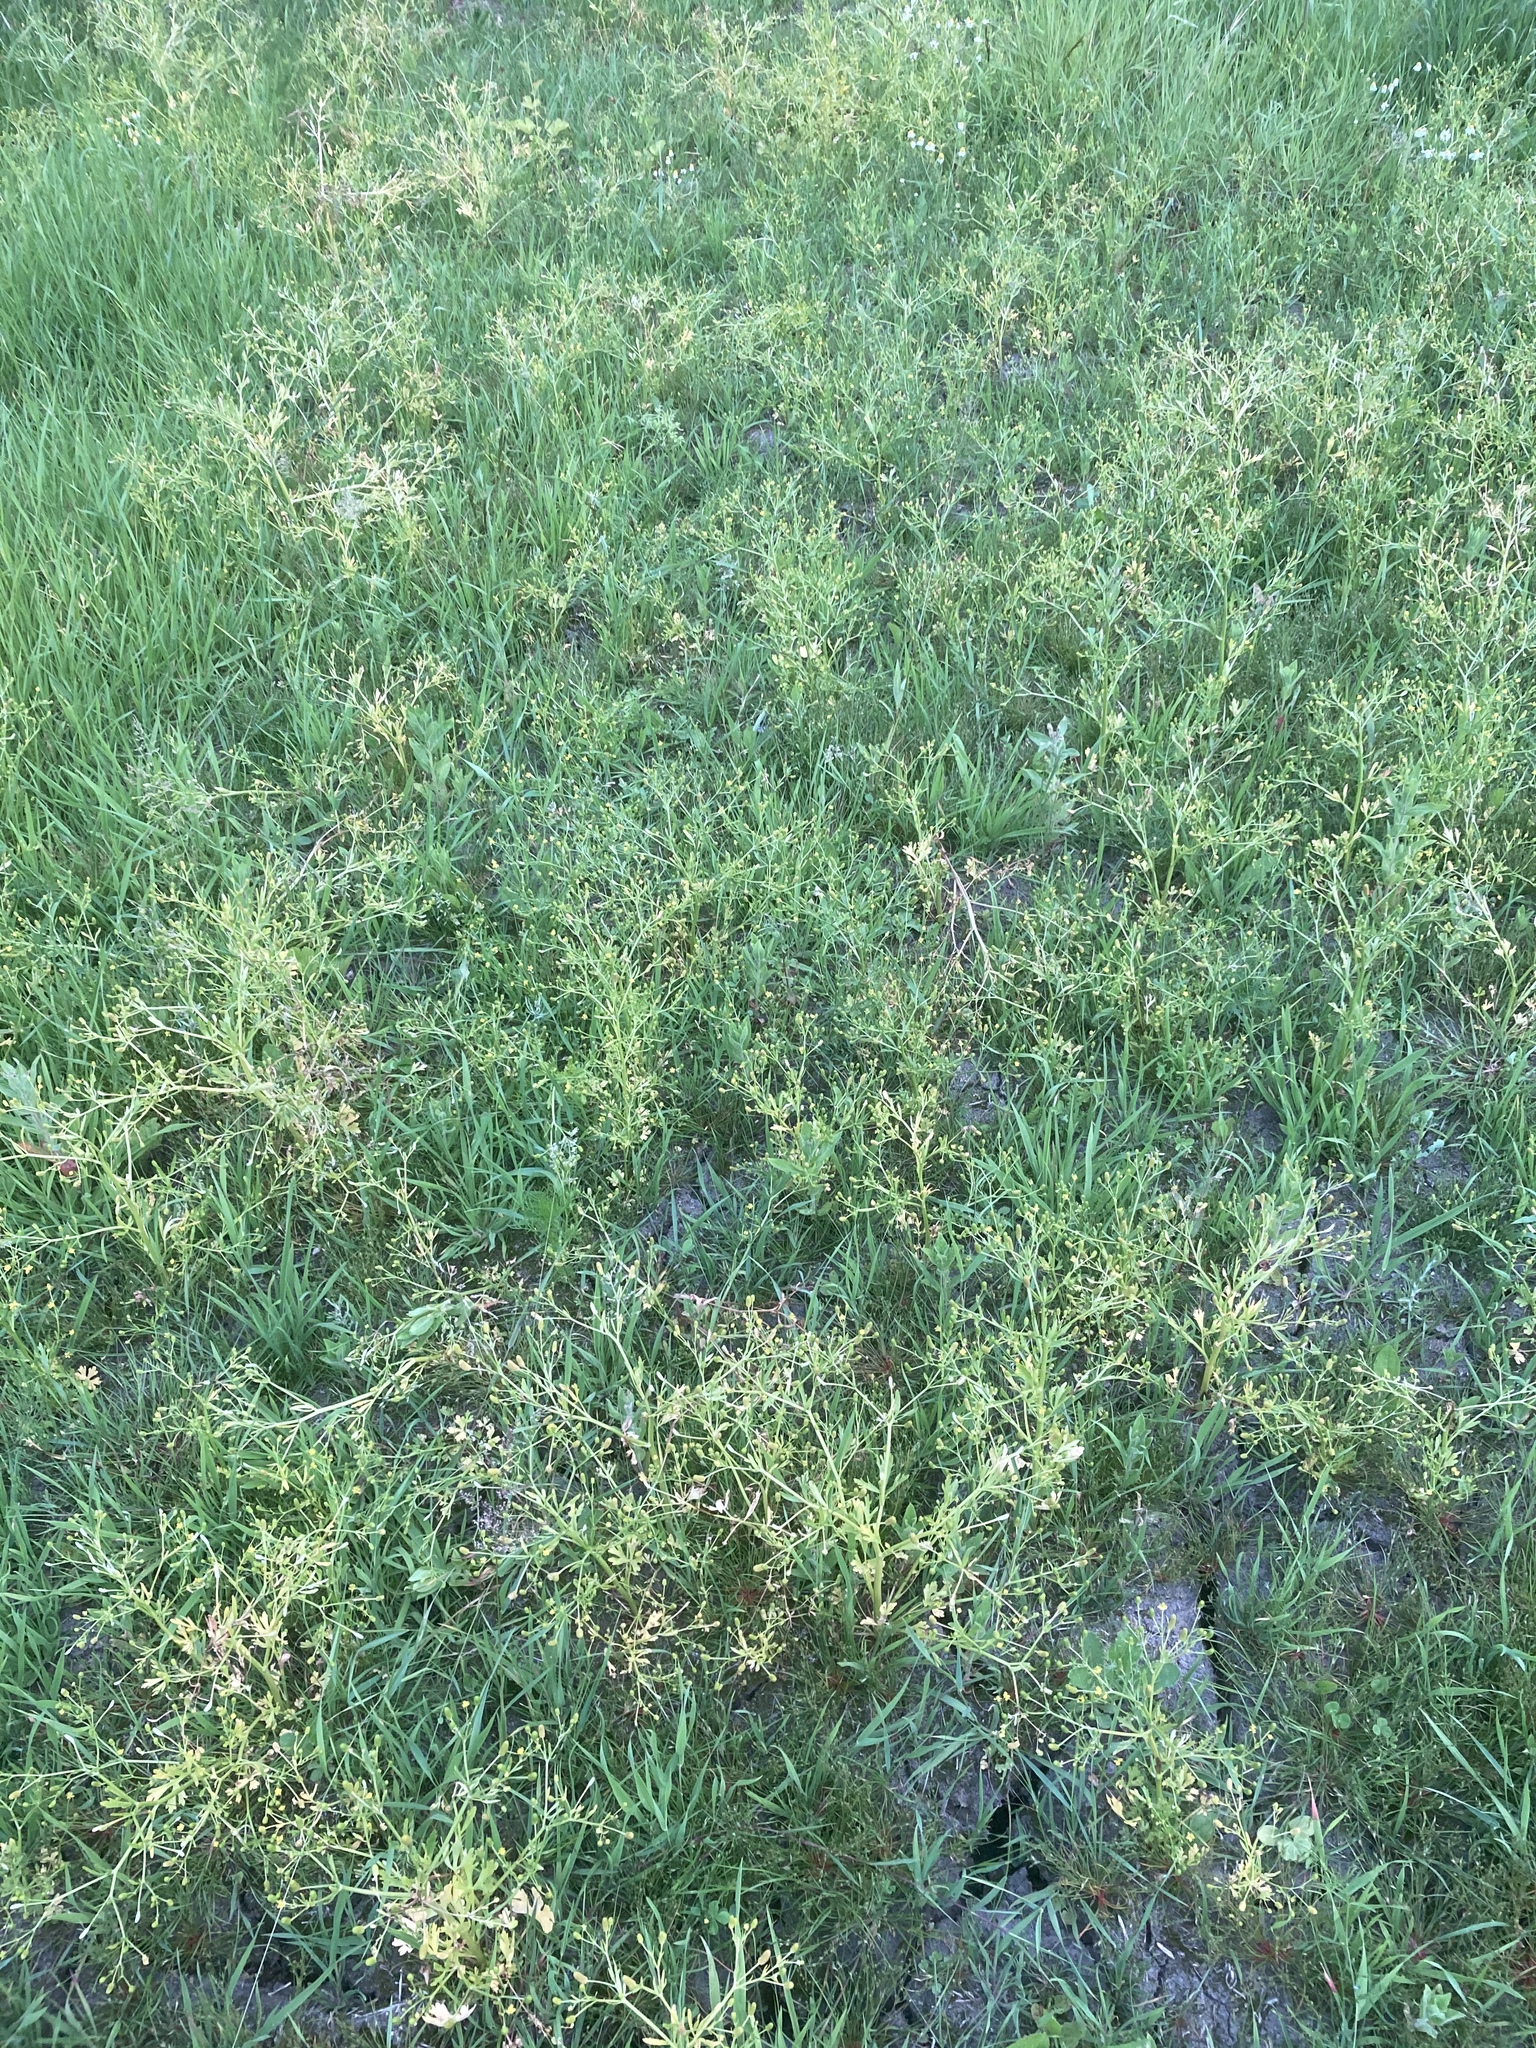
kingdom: Plantae
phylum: Tracheophyta
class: Magnoliopsida
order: Ranunculales
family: Ranunculaceae
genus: Ranunculus
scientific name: Ranunculus sceleratus
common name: Celery-leaved buttercup
